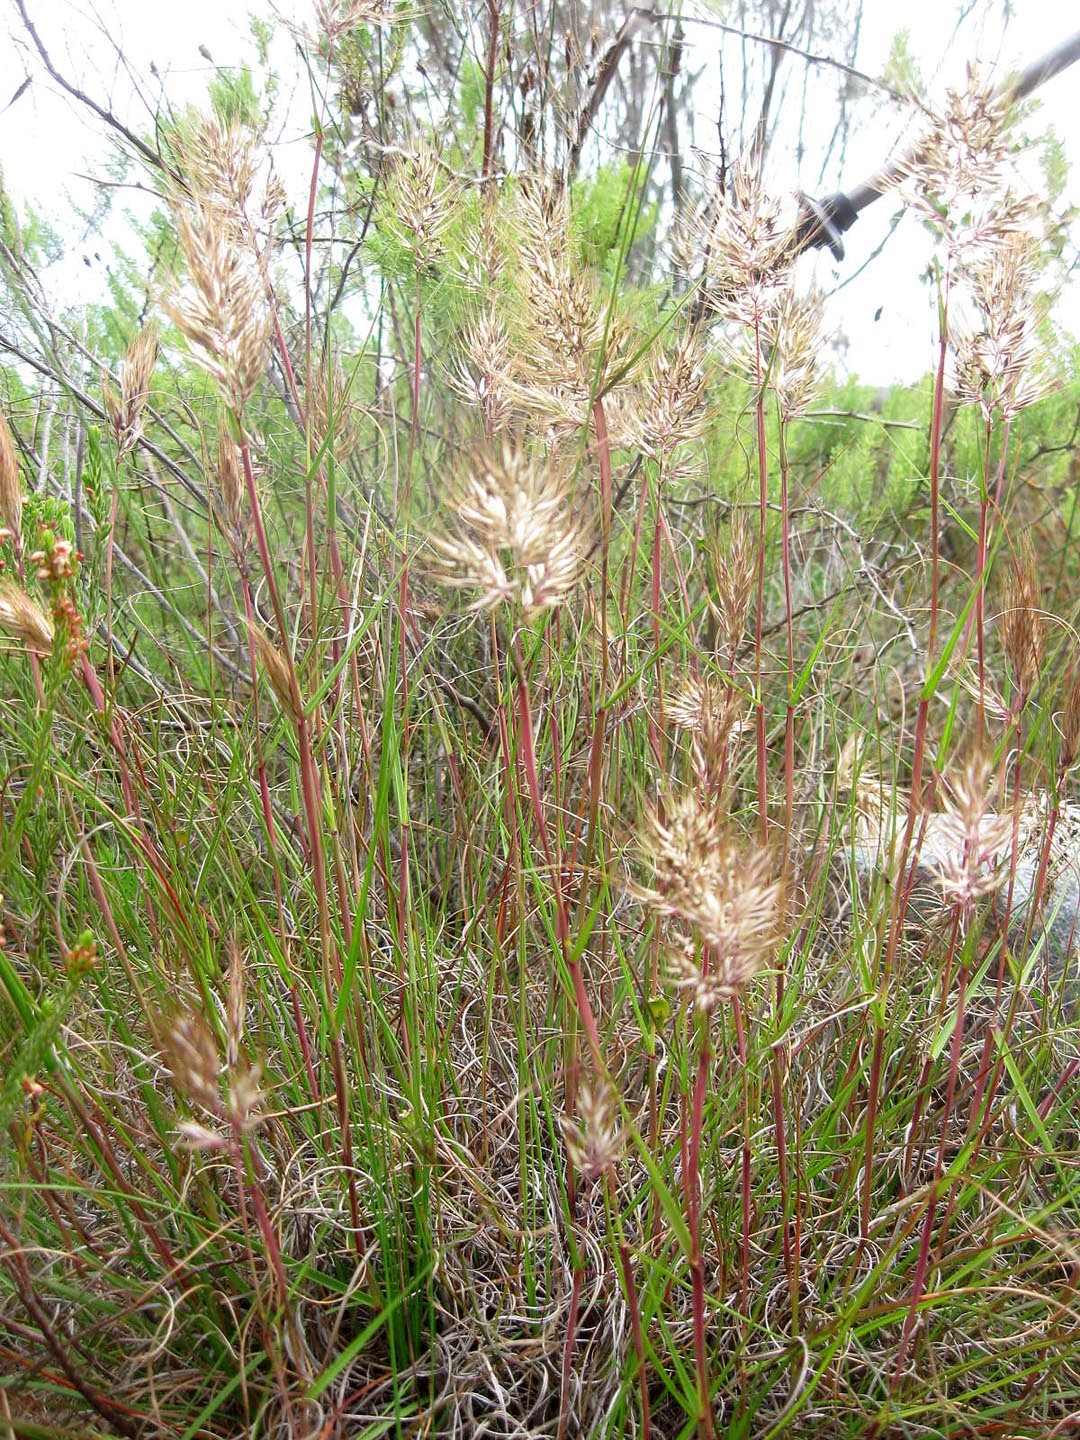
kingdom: Plantae
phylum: Tracheophyta
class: Liliopsida
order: Poales
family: Poaceae
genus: Pentameris
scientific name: Pentameris curvifolia
